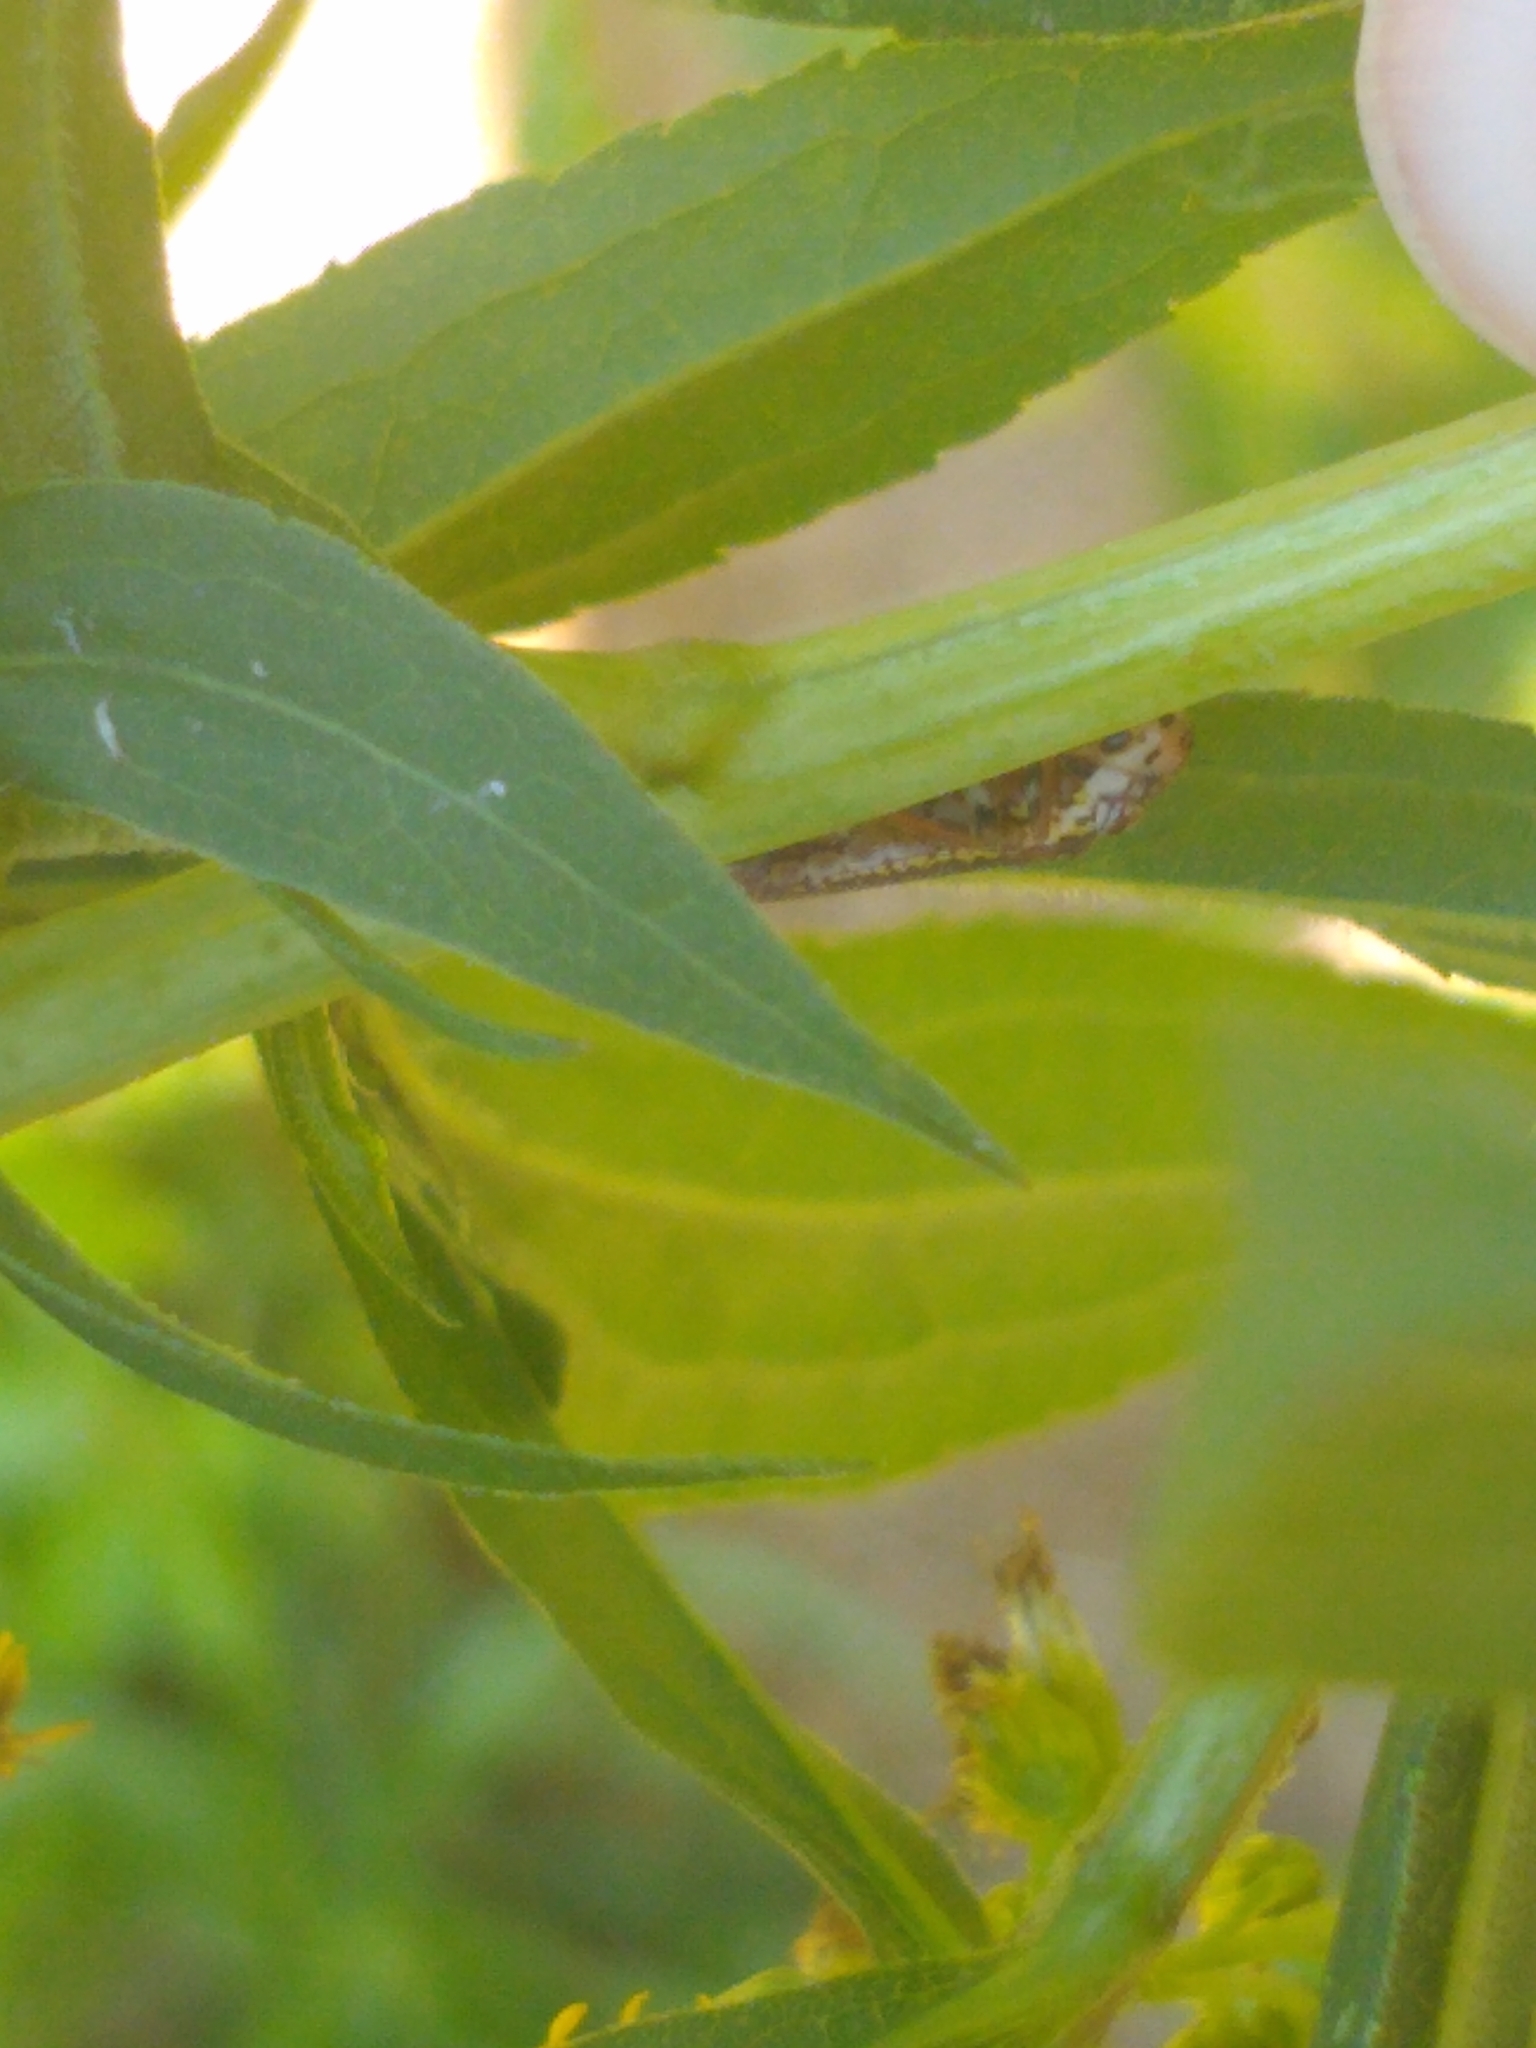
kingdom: Animalia
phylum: Arthropoda
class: Insecta
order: Hemiptera
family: Cicadellidae
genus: Paraulacizes
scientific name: Paraulacizes irrorata
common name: Speckled sharpshooter
